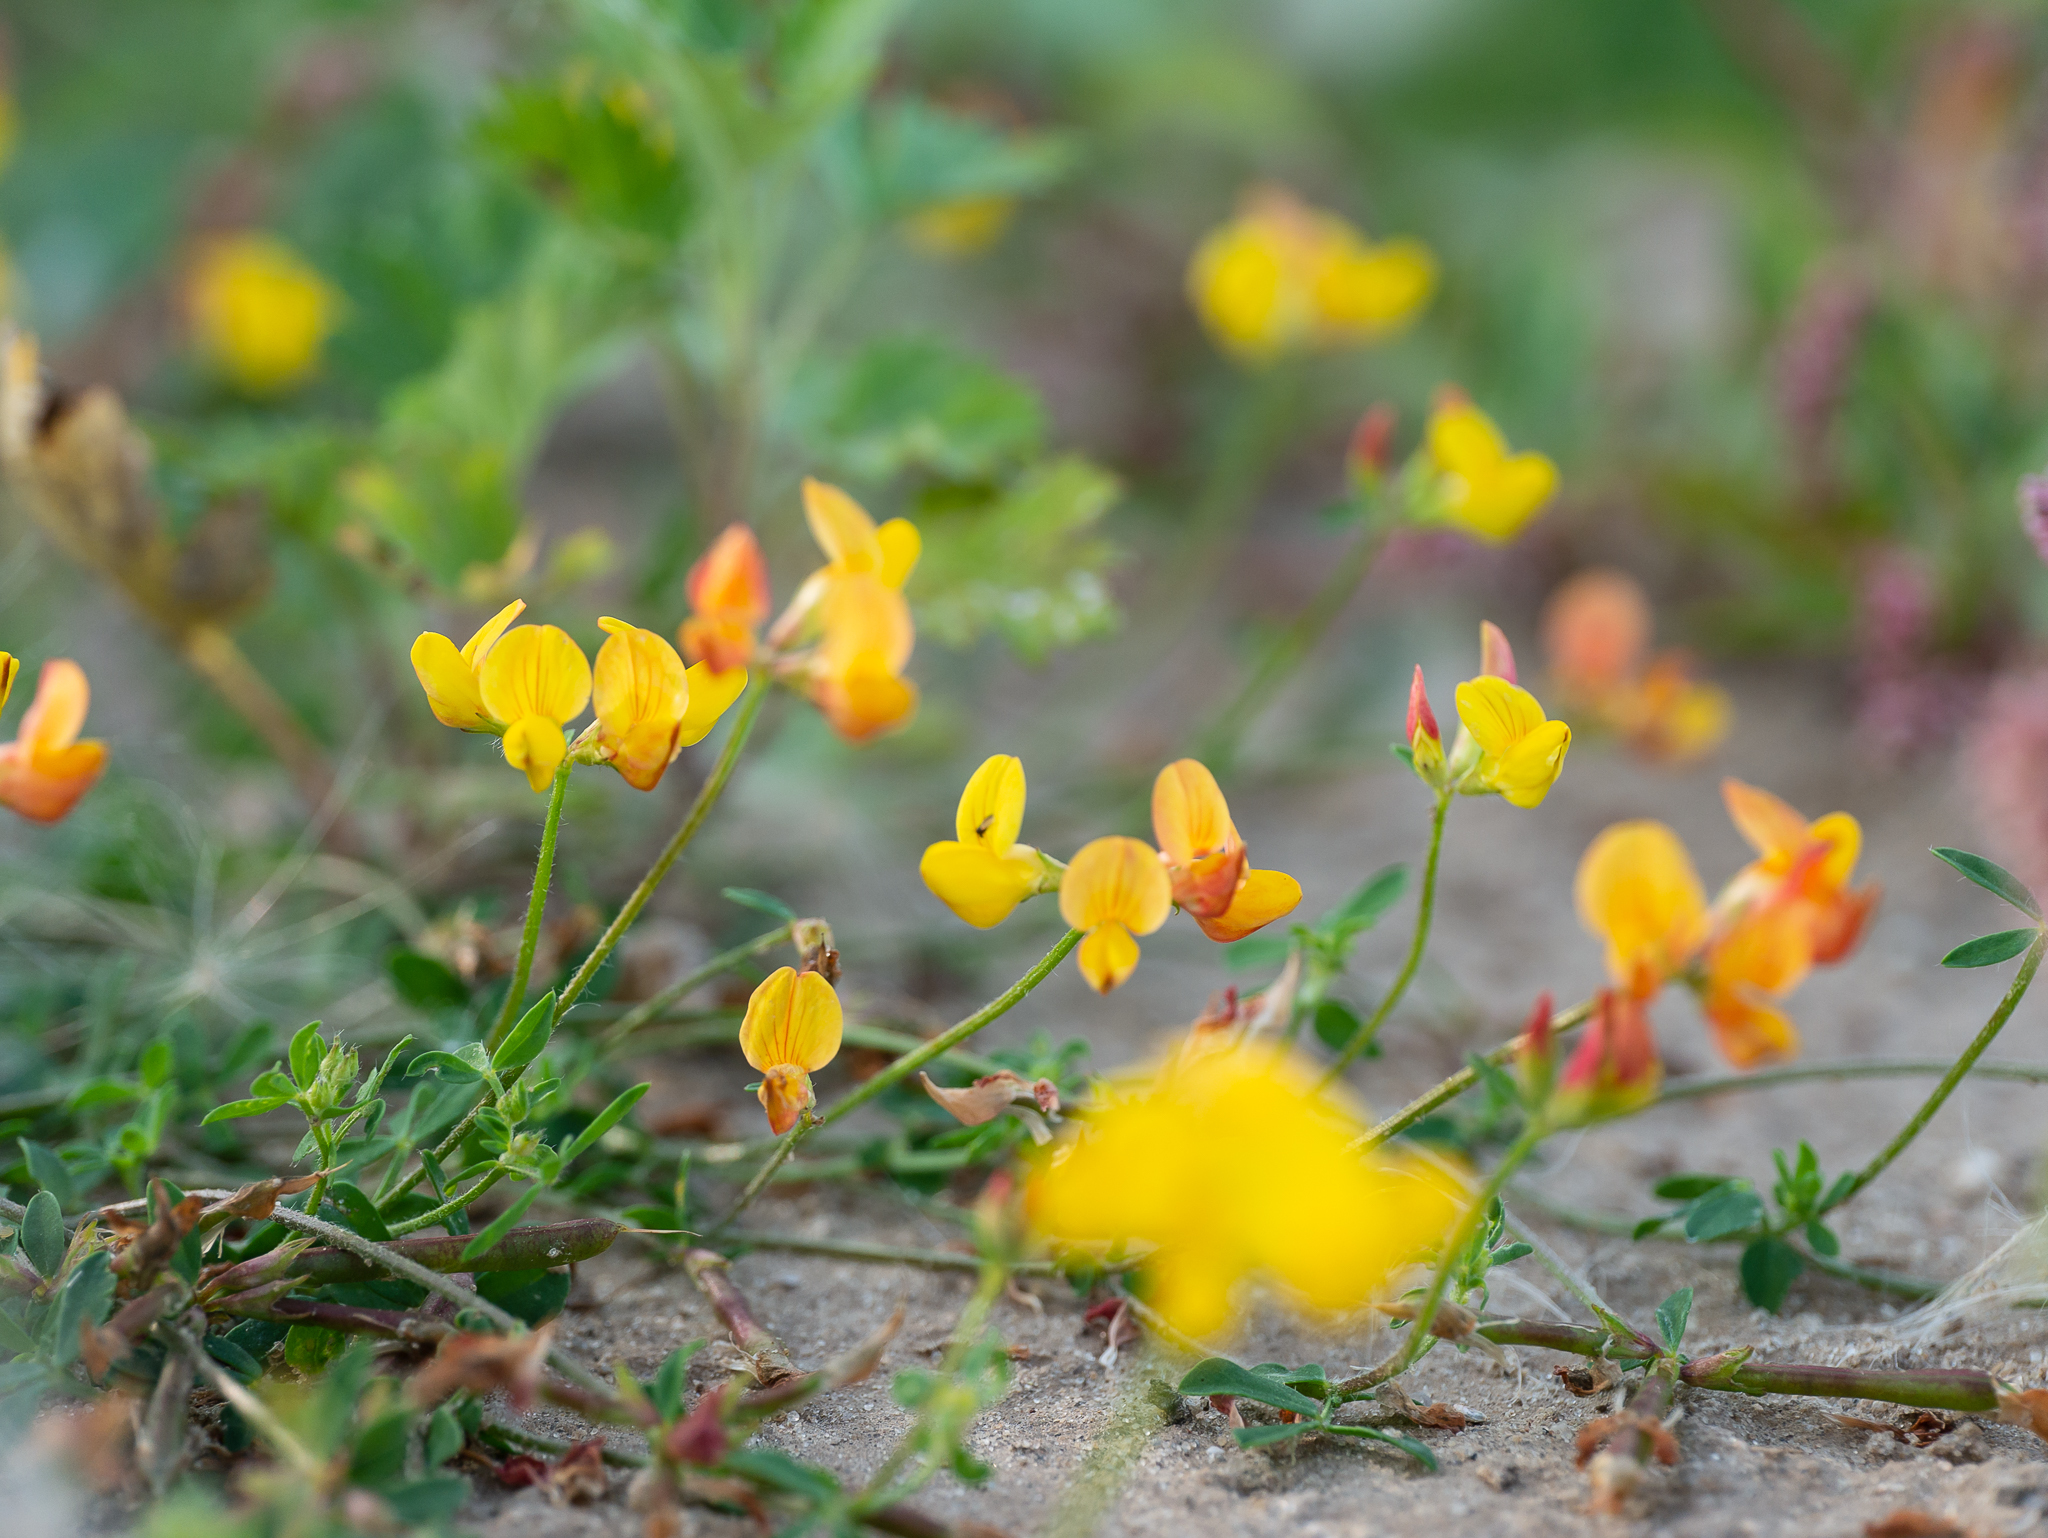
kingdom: Plantae
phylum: Tracheophyta
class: Magnoliopsida
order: Fabales
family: Fabaceae
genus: Lotus
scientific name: Lotus corniculatus
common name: Common bird's-foot-trefoil
